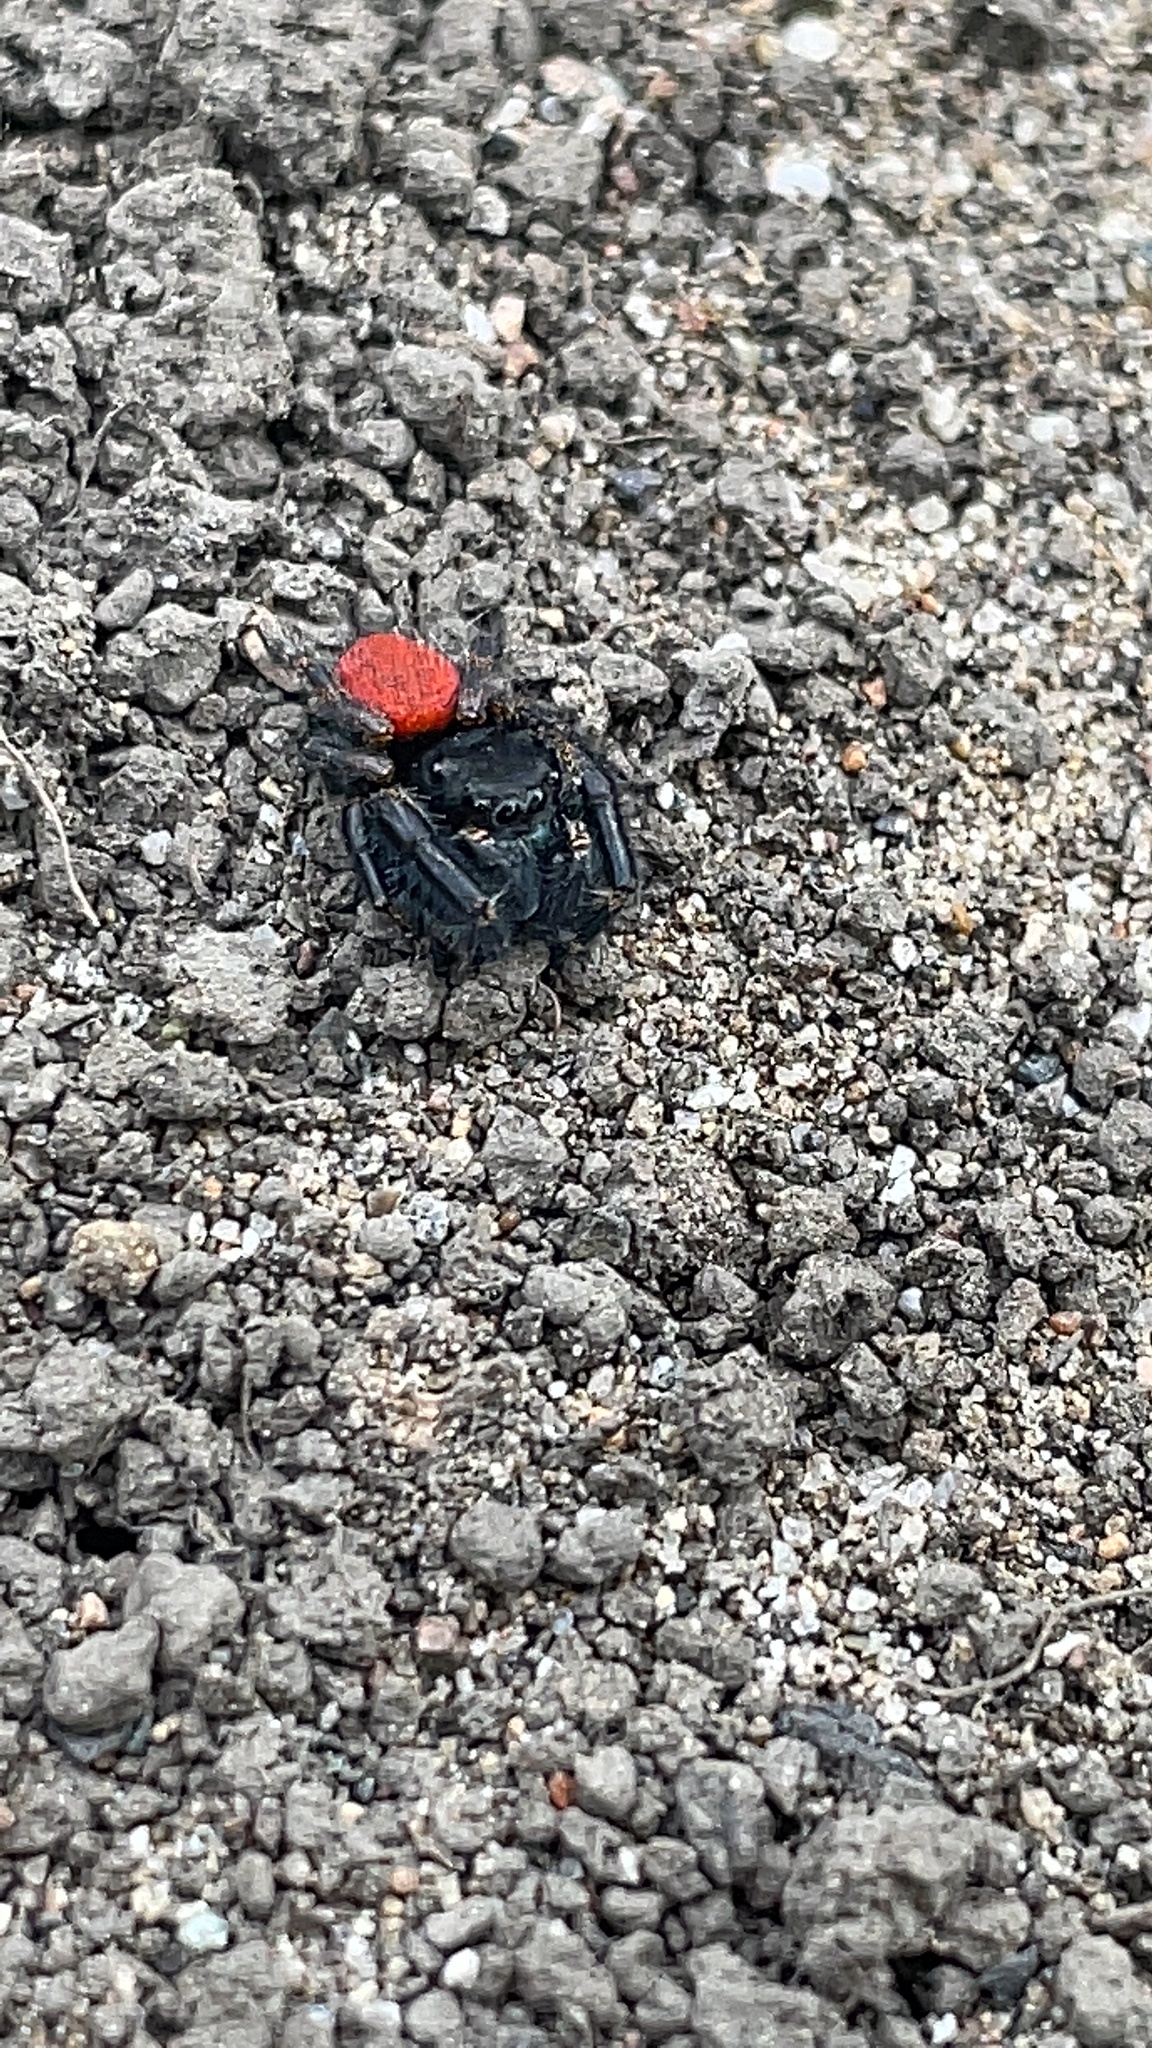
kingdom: Animalia
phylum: Arthropoda
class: Arachnida
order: Araneae
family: Salticidae
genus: Phidippus
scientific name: Phidippus johnsoni
